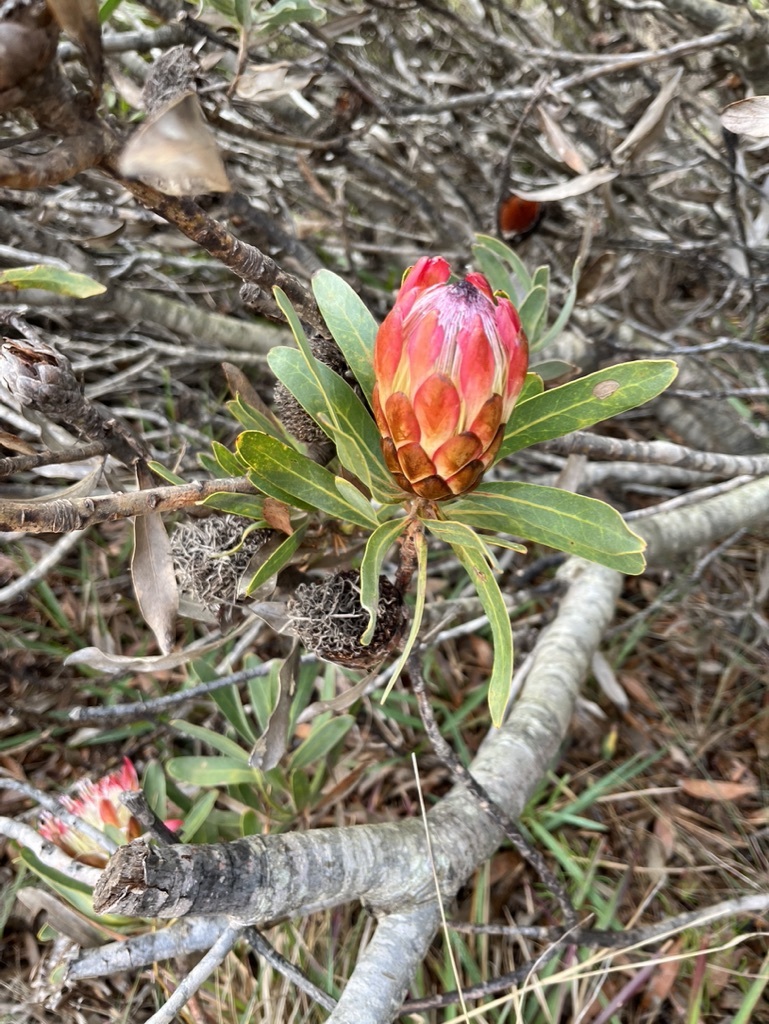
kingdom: Plantae
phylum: Tracheophyta
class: Magnoliopsida
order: Proteales
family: Proteaceae
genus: Protea
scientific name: Protea susannae
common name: Foetid-leaf sugarbush
